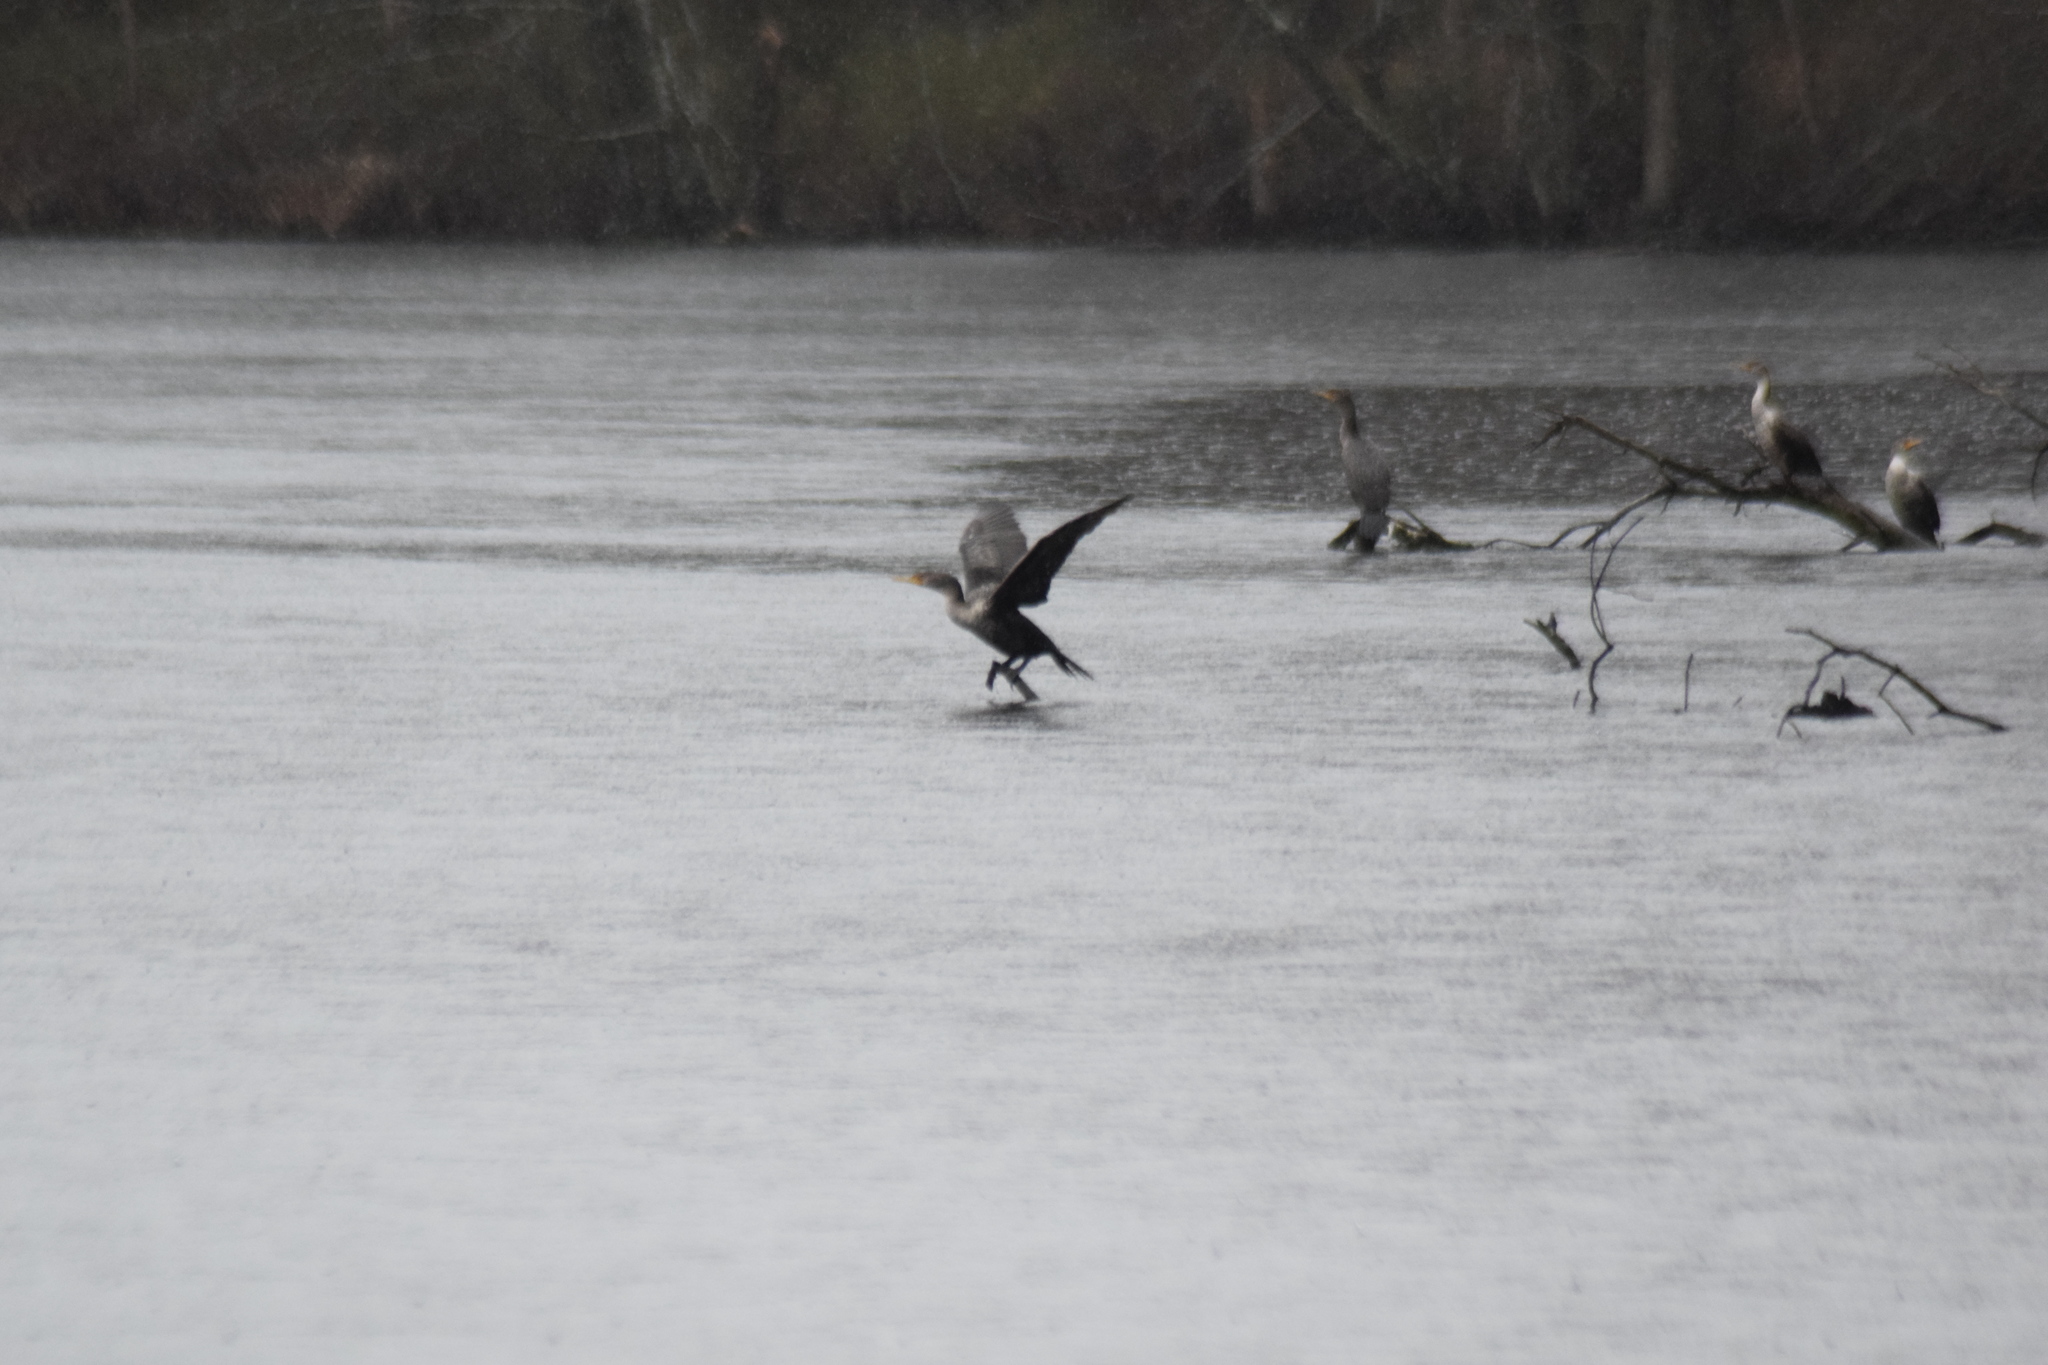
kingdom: Animalia
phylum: Chordata
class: Aves
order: Suliformes
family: Phalacrocoracidae
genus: Phalacrocorax
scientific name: Phalacrocorax auritus
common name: Double-crested cormorant
